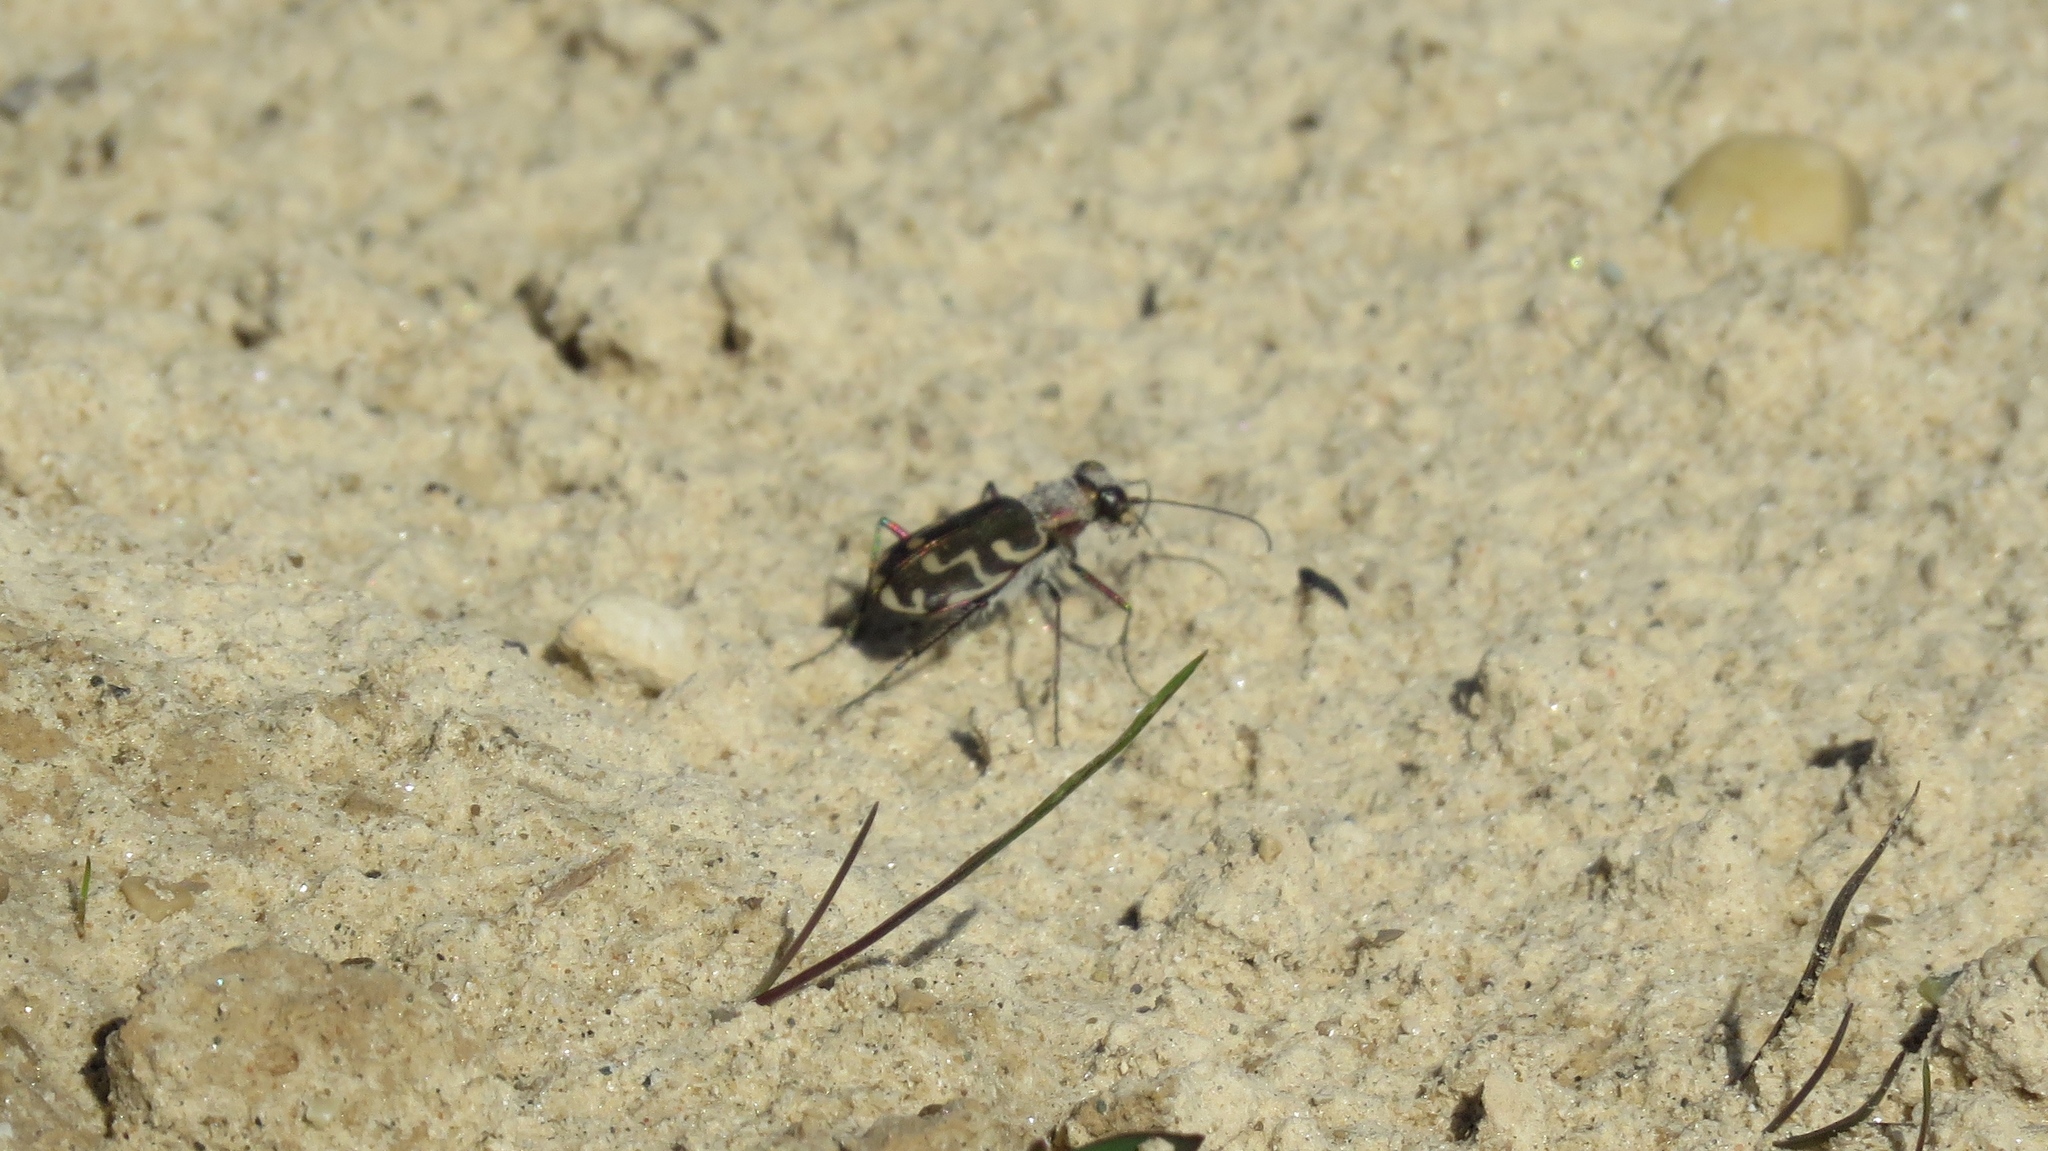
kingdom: Animalia
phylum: Arthropoda
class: Insecta
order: Coleoptera
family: Carabidae
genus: Cicindela
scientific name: Cicindela repanda
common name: Bronzed tiger beetle
